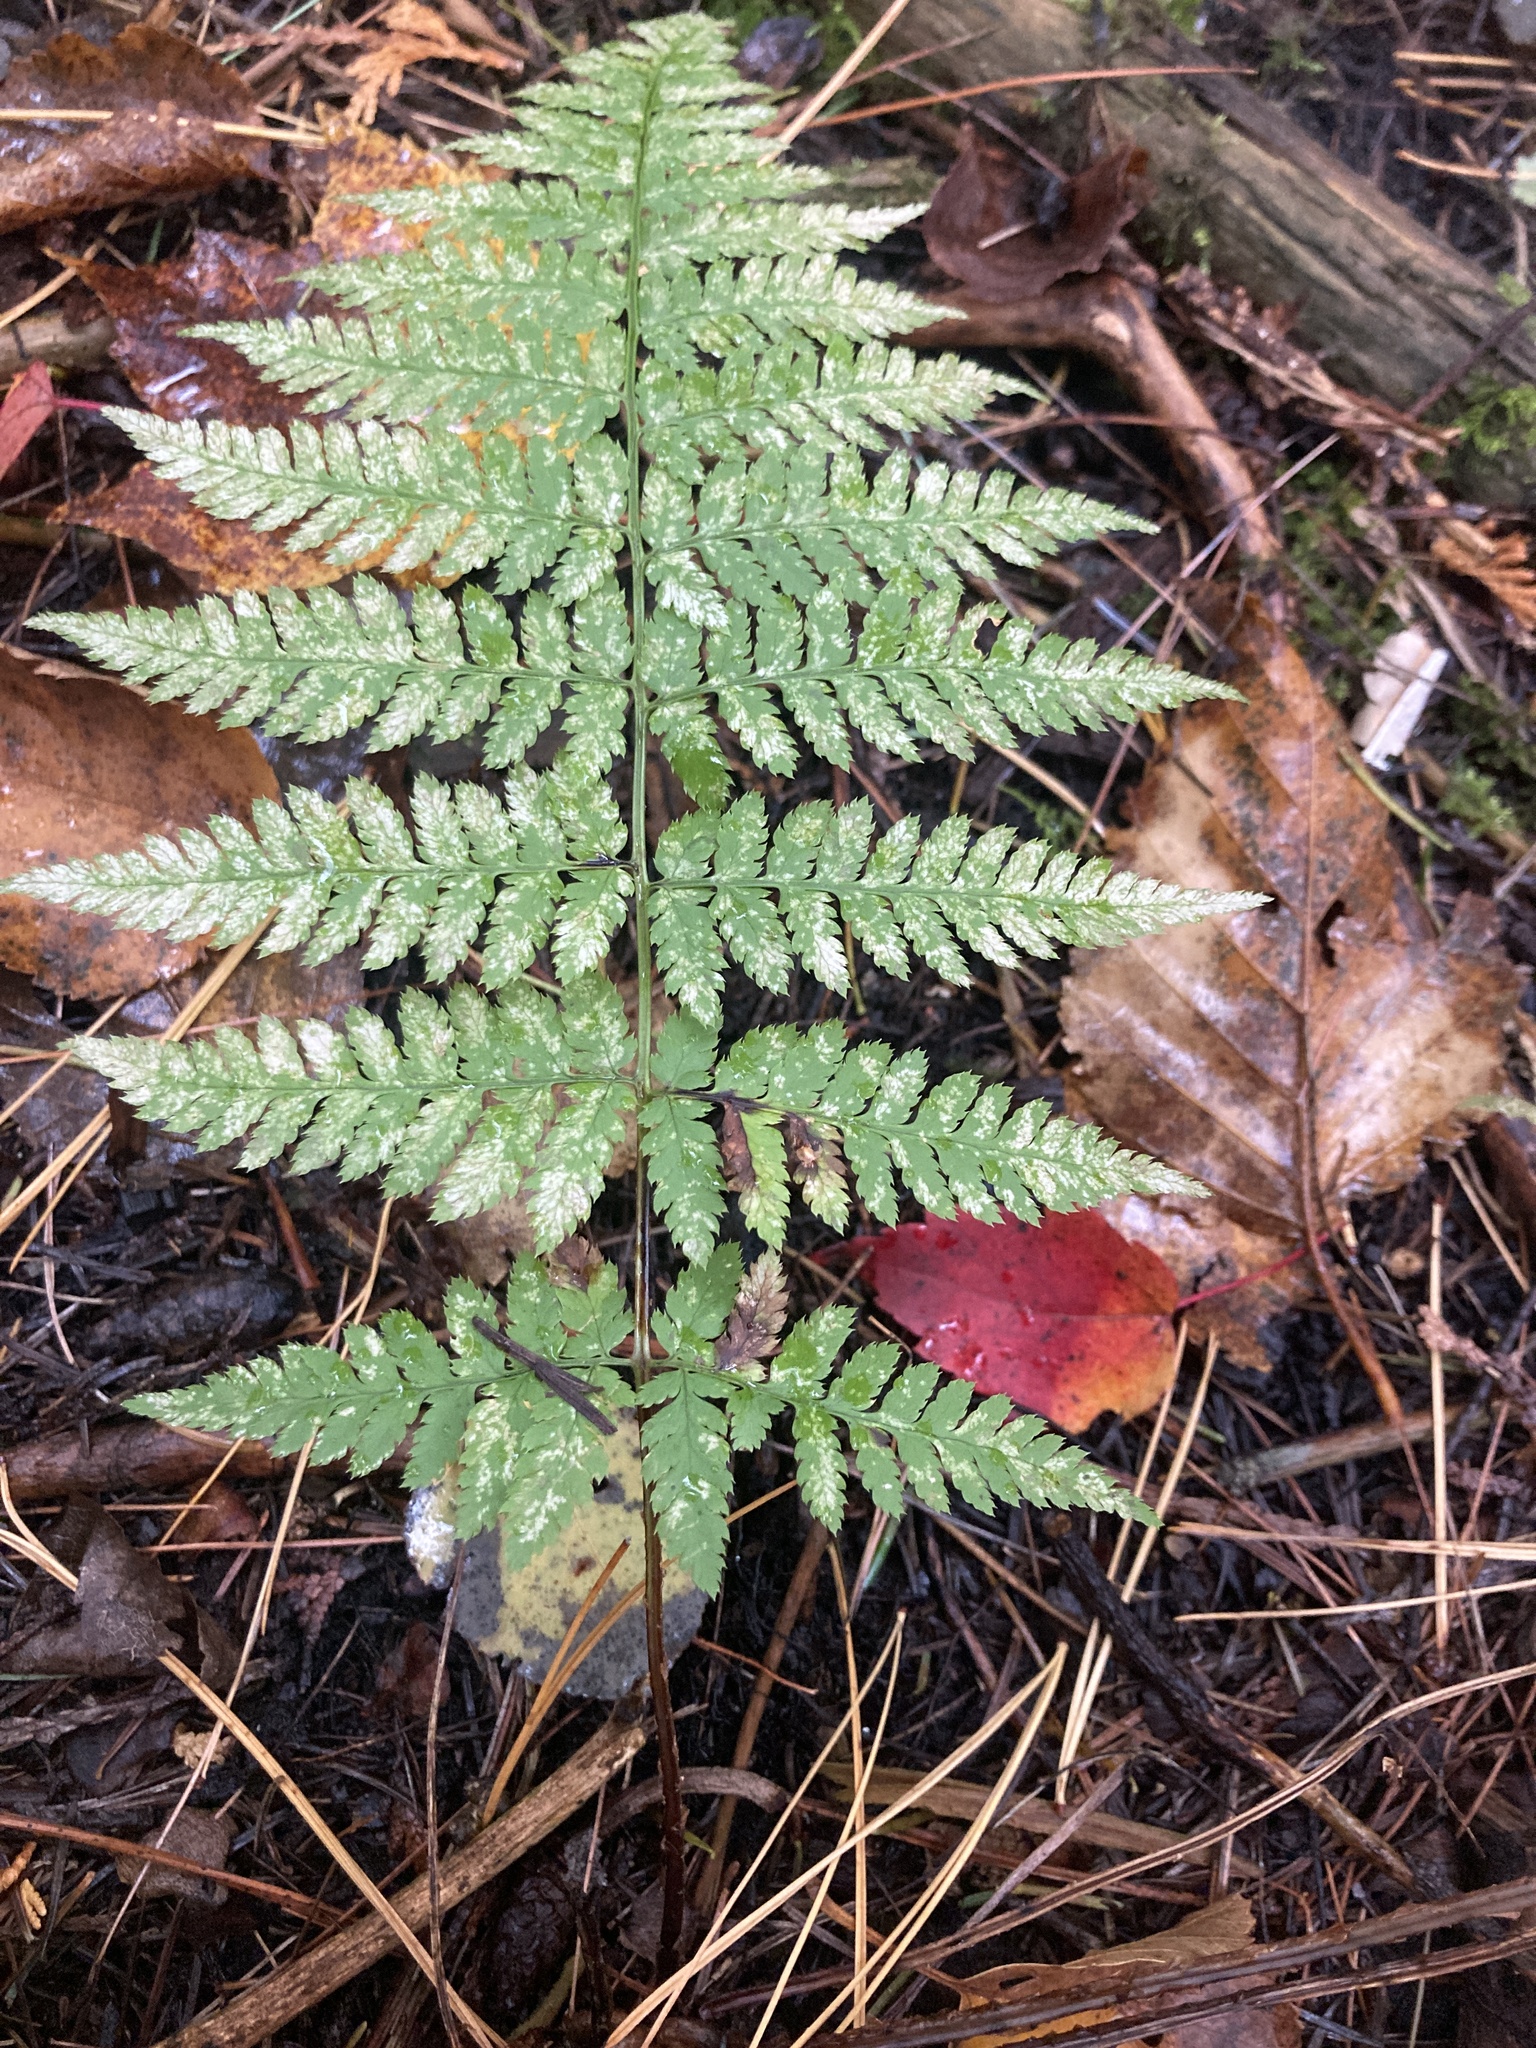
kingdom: Plantae
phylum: Tracheophyta
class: Polypodiopsida
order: Polypodiales
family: Dryopteridaceae
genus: Dryopteris
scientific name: Dryopteris carthusiana
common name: Narrow buckler-fern
